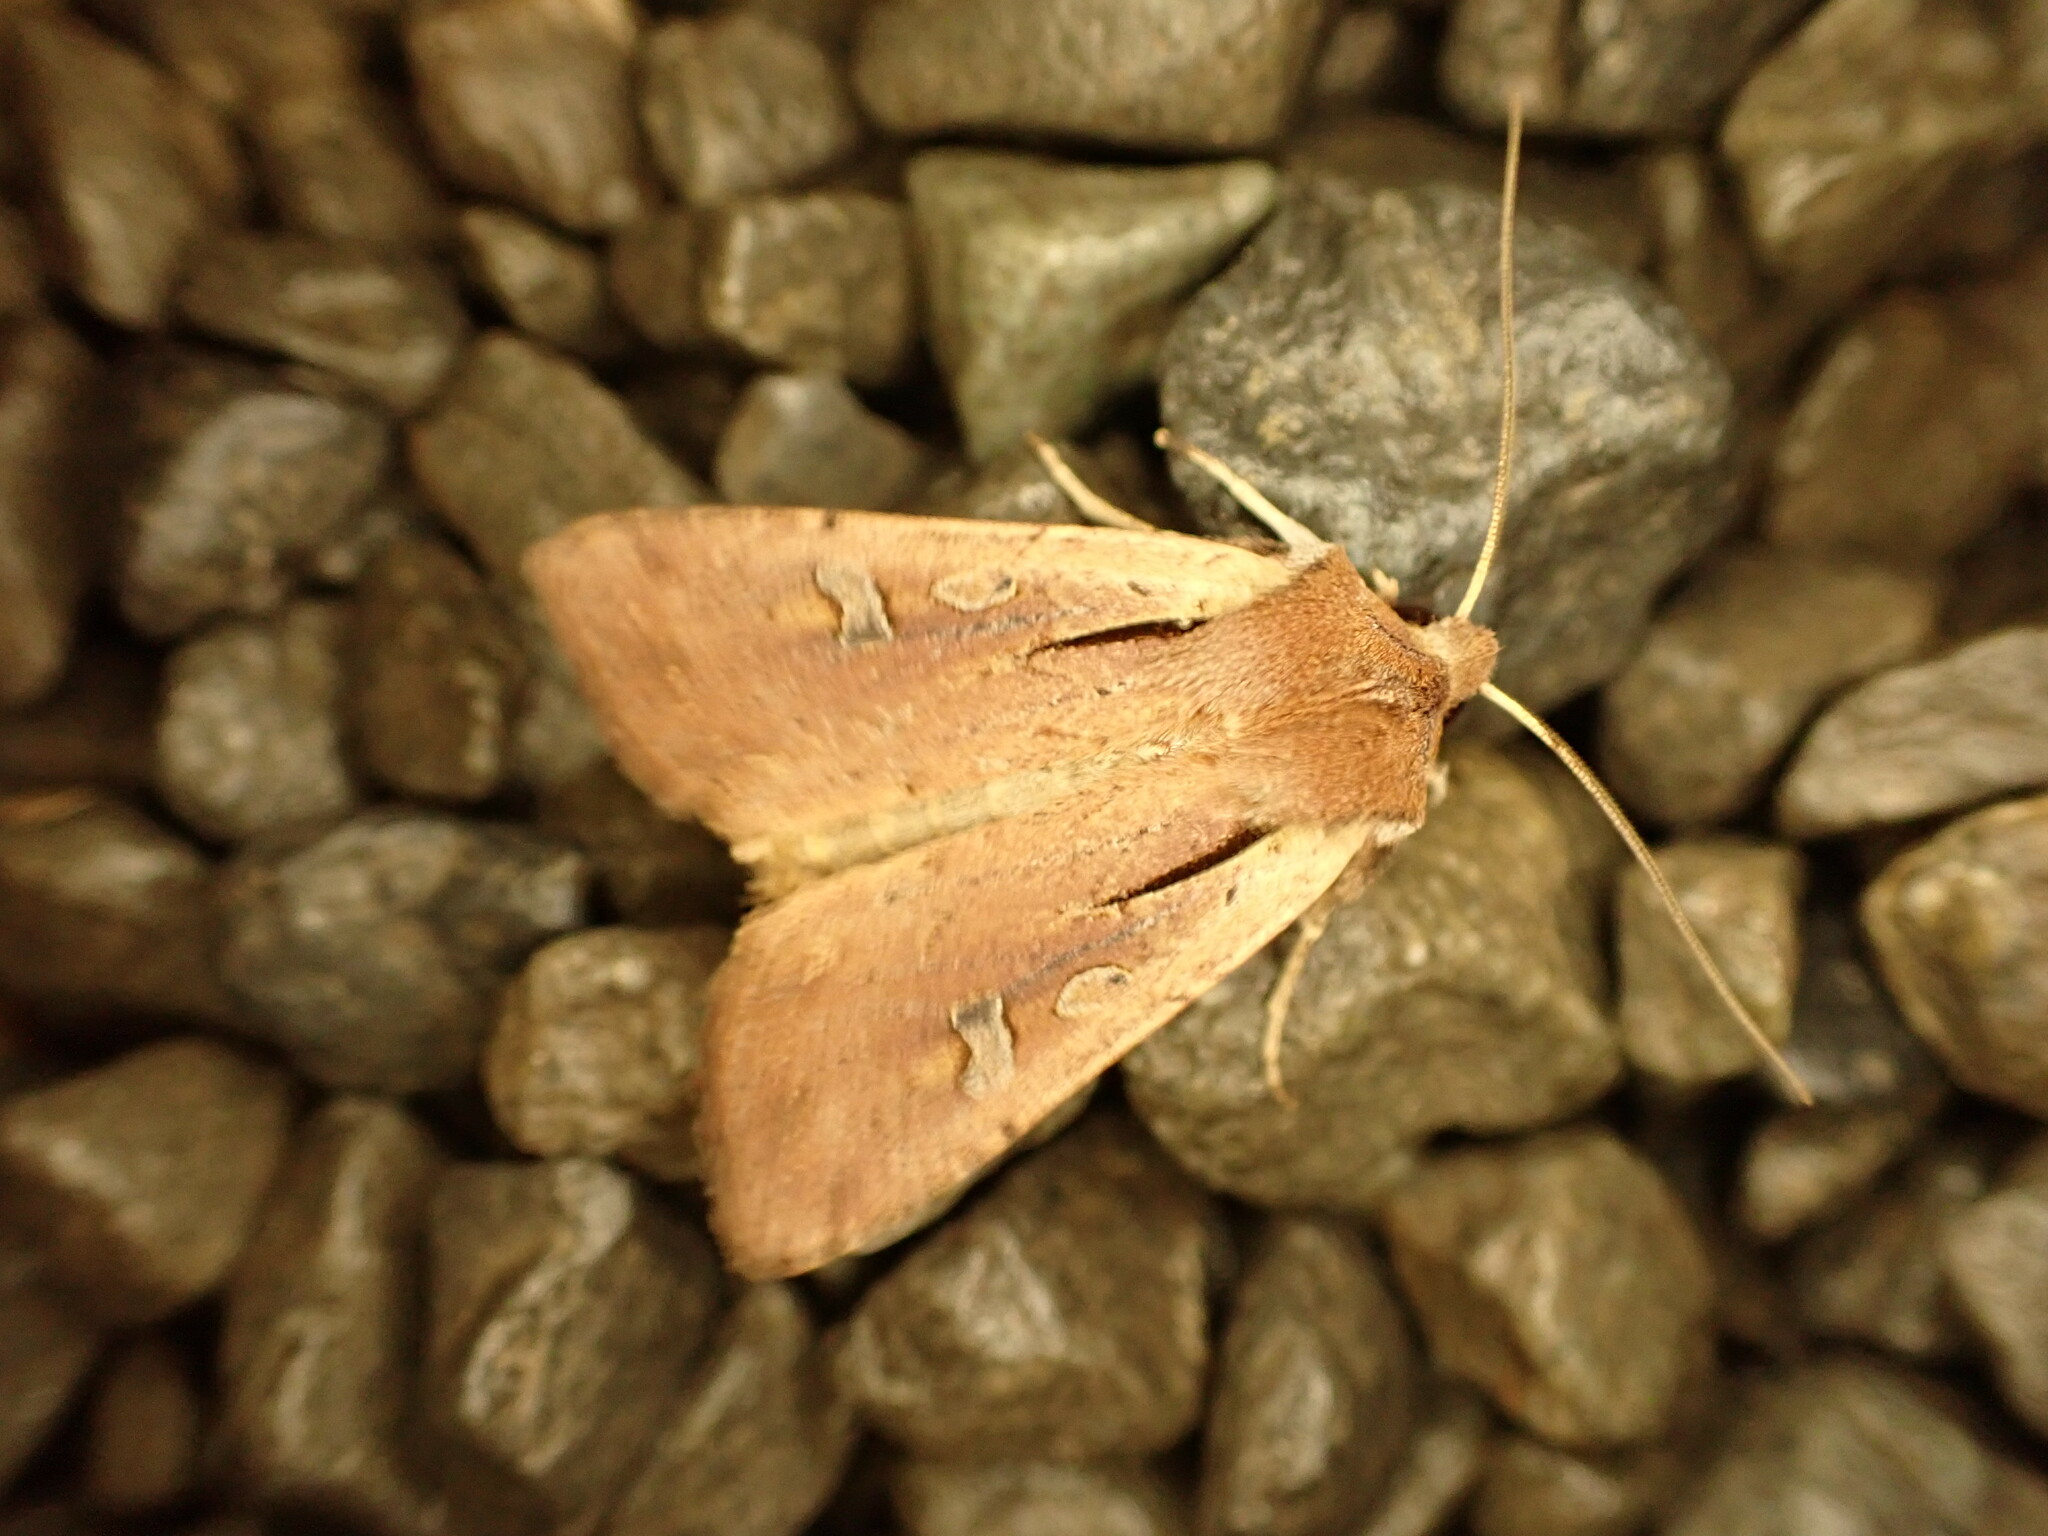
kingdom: Animalia
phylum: Arthropoda
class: Insecta
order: Lepidoptera
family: Noctuidae
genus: Ichneutica
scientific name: Ichneutica atristriga
